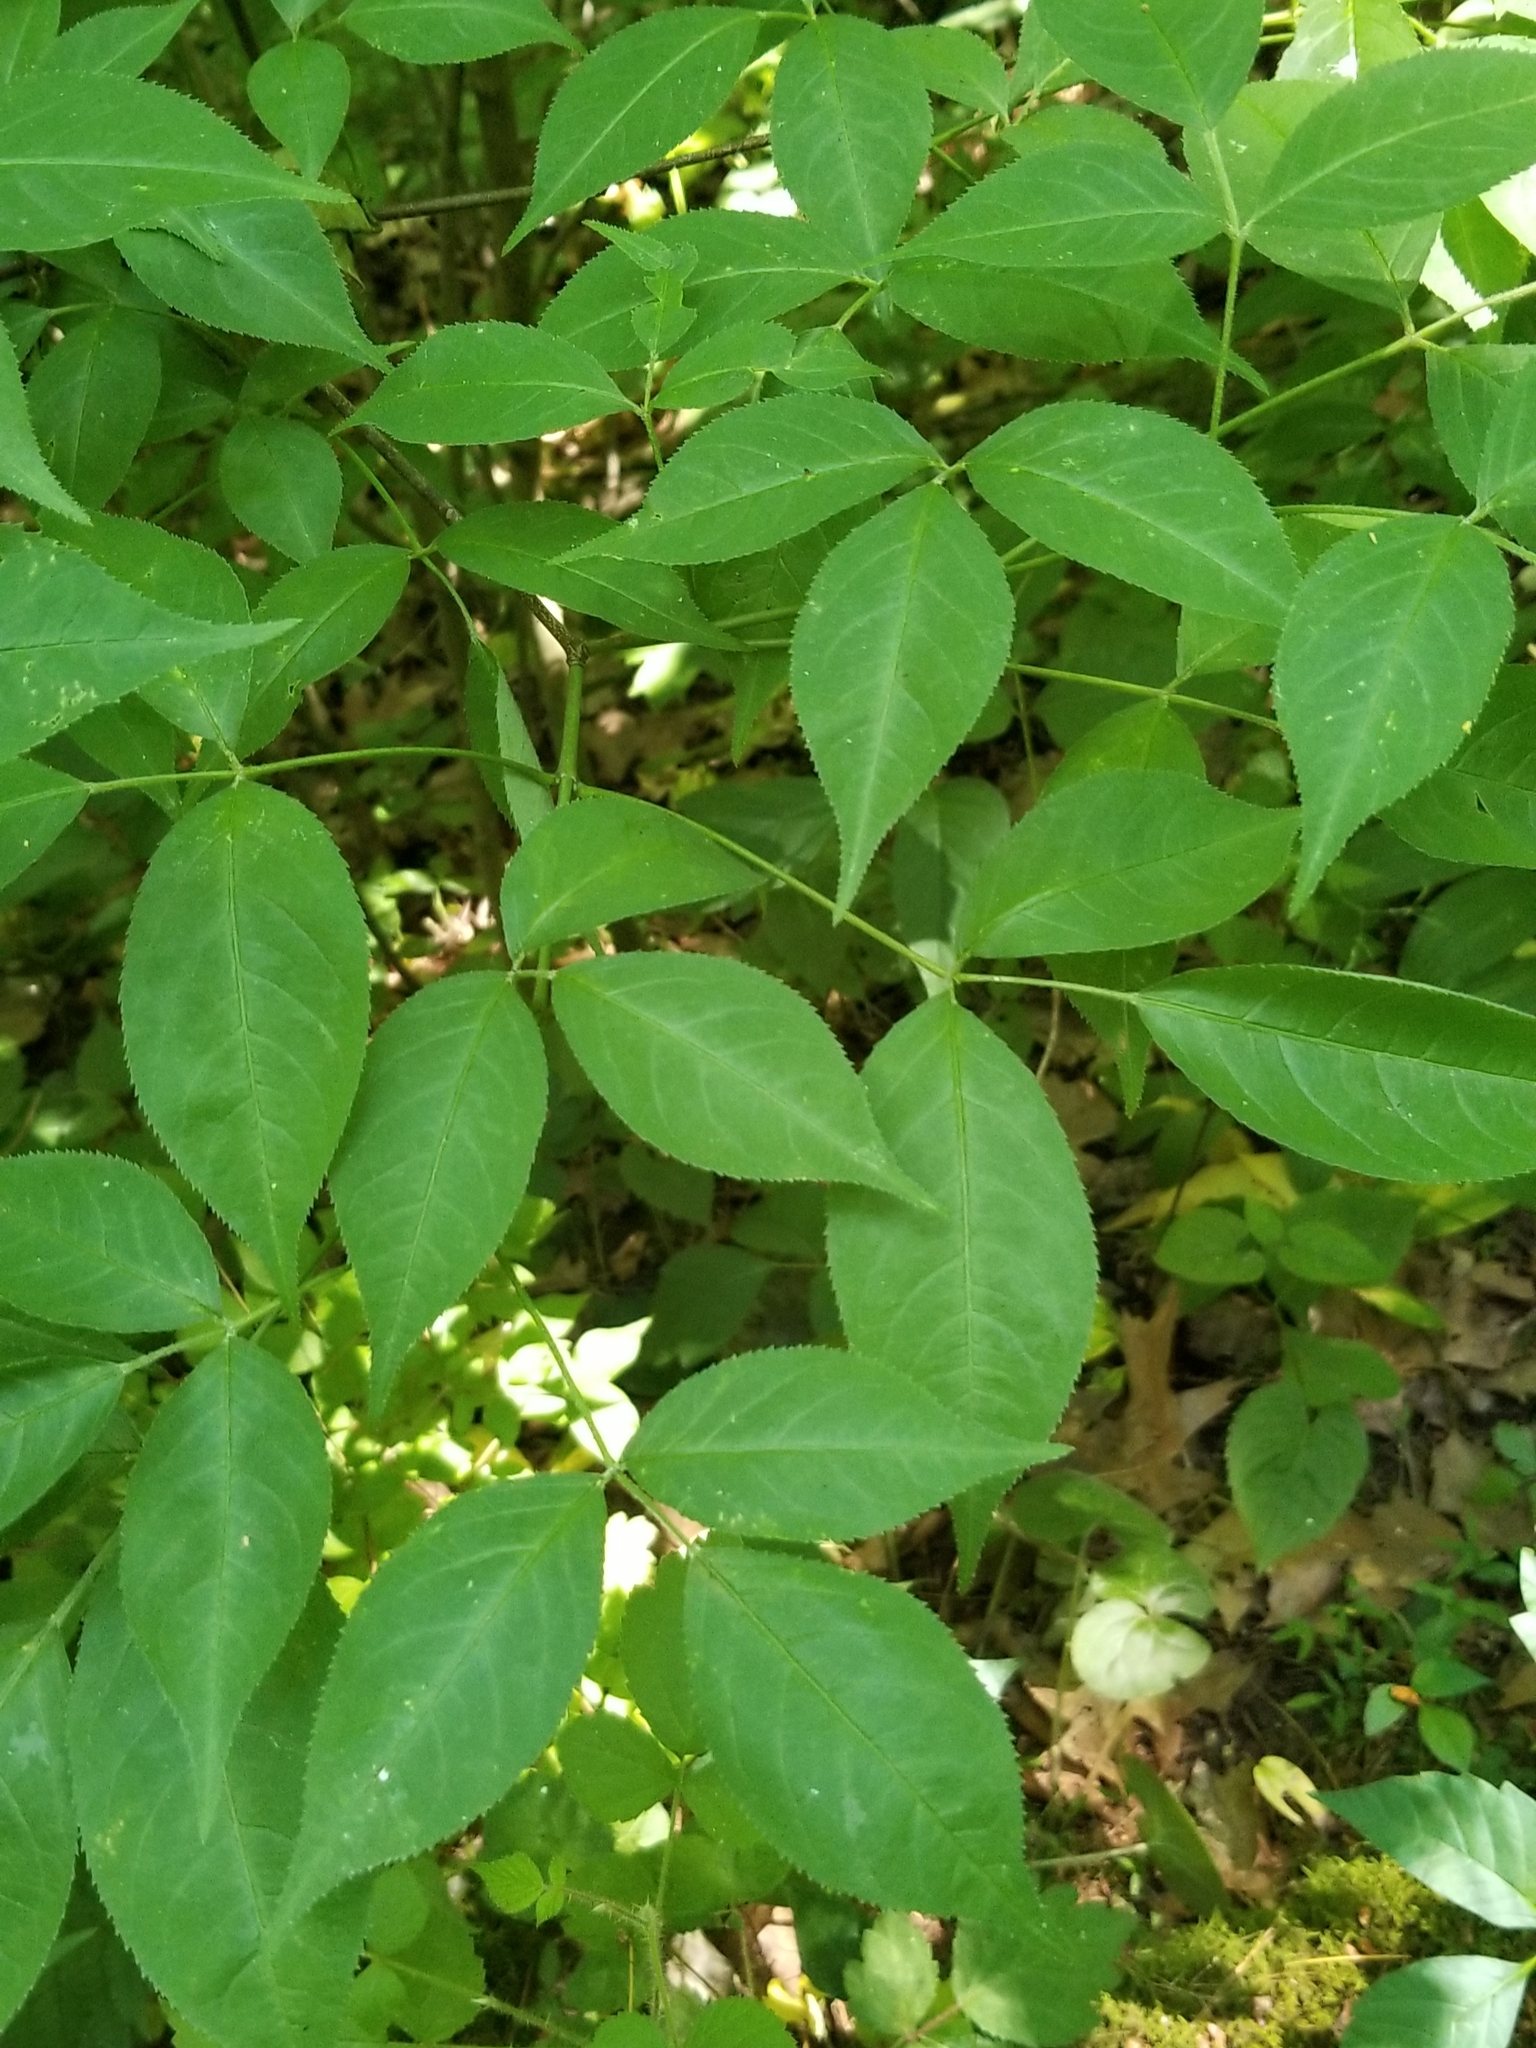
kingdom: Plantae
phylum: Tracheophyta
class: Magnoliopsida
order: Crossosomatales
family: Staphyleaceae
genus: Staphylea
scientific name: Staphylea trifolia
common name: American bladdernut
